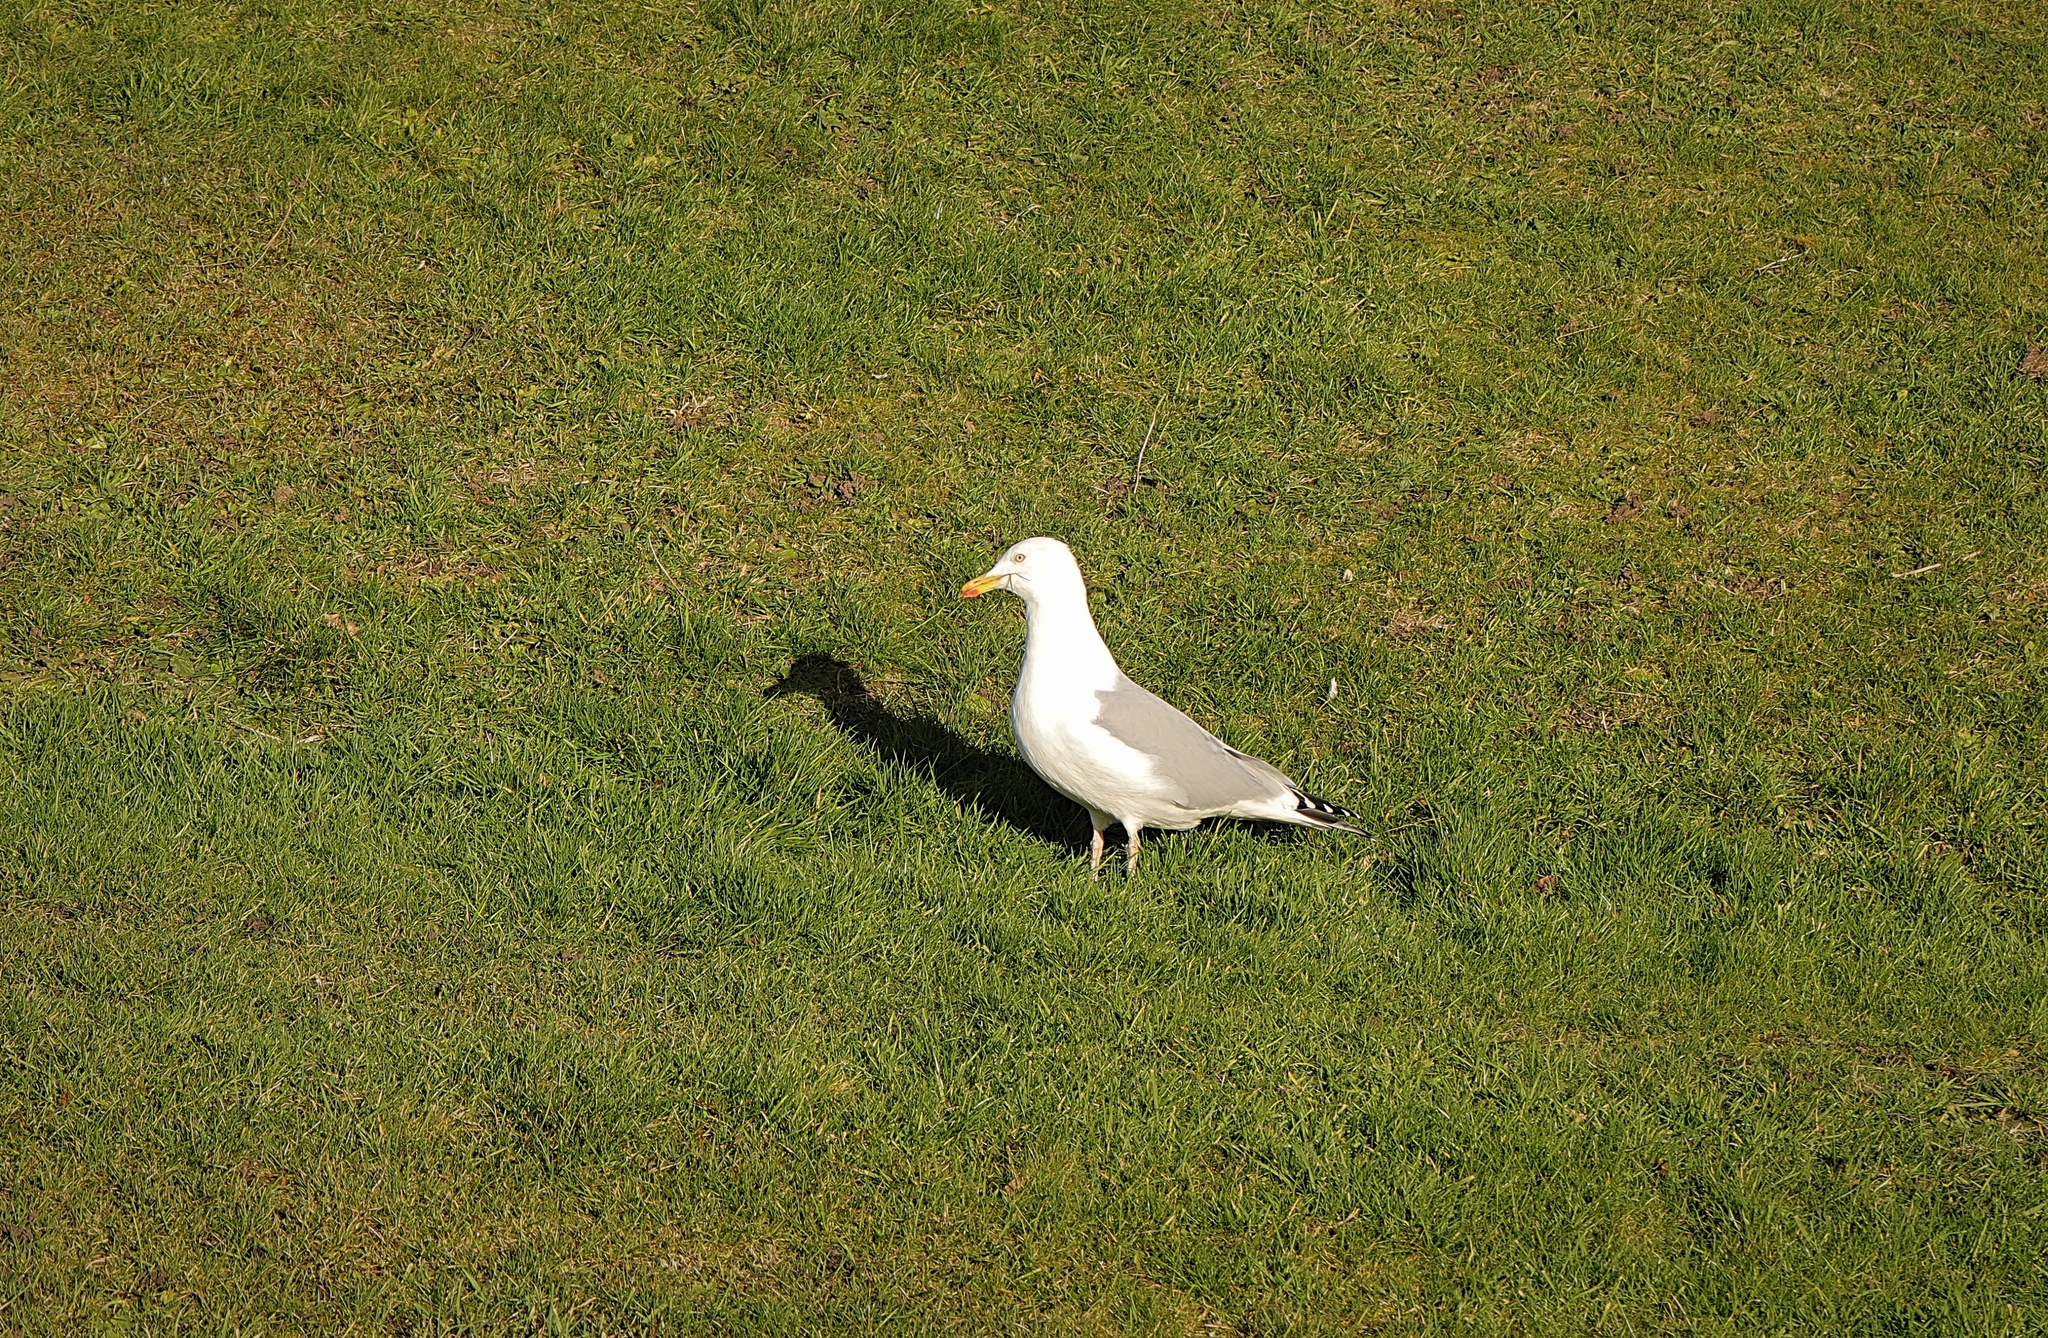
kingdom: Animalia
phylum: Chordata
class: Aves
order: Charadriiformes
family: Laridae
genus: Larus
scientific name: Larus argentatus
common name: Herring gull
